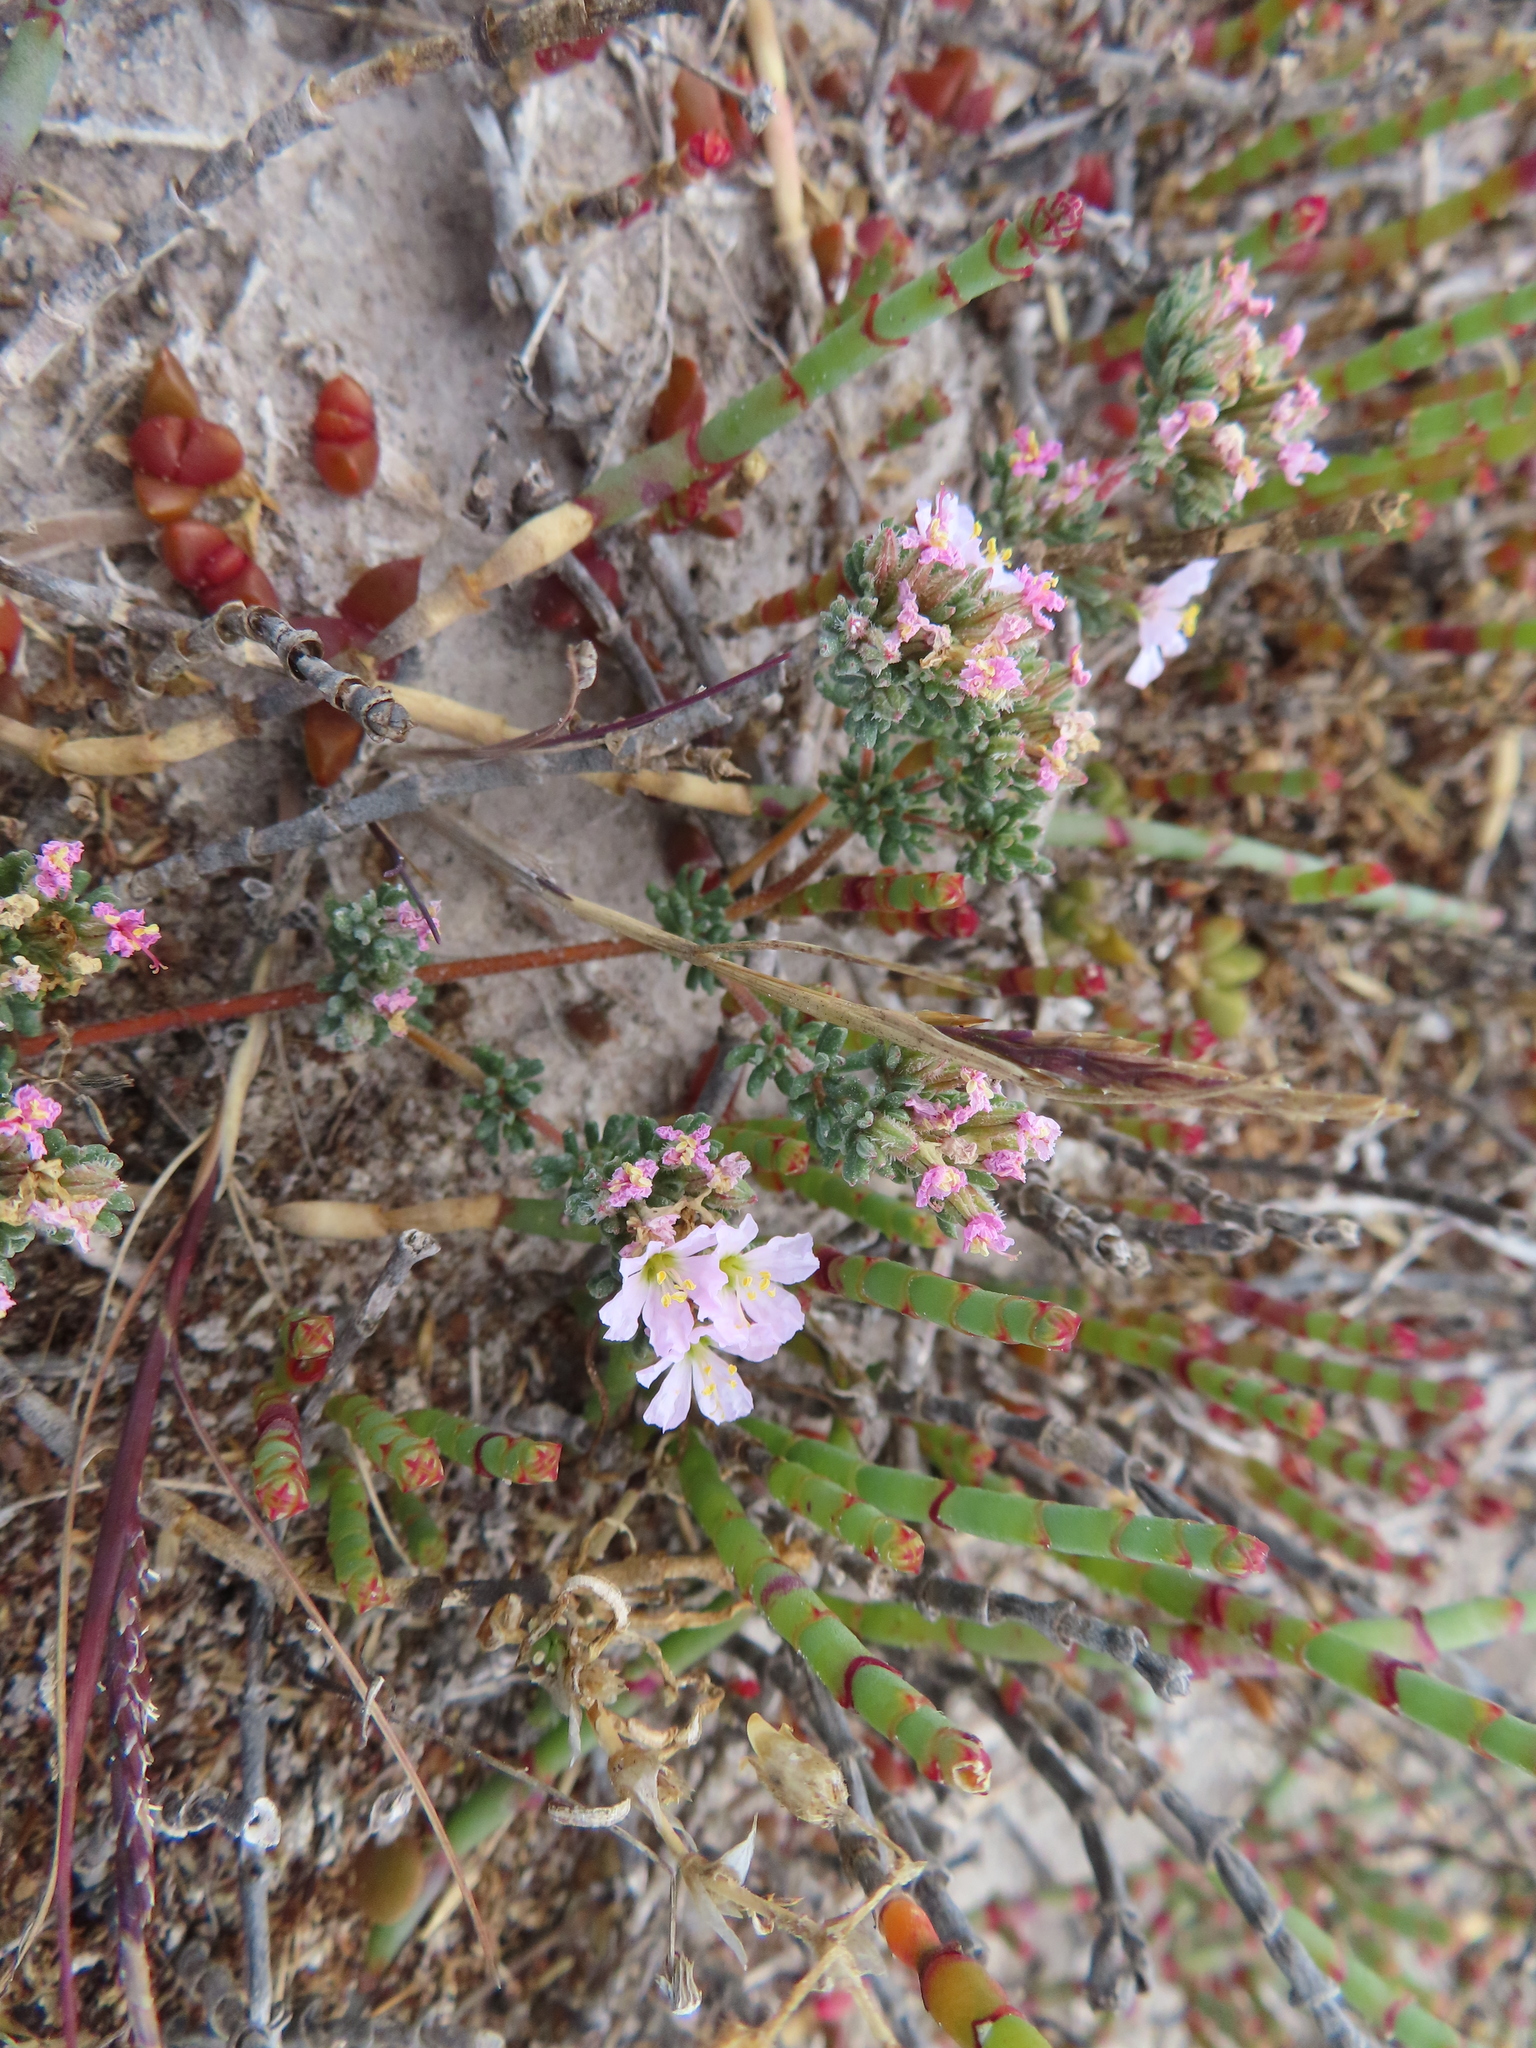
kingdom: Plantae
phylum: Tracheophyta
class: Magnoliopsida
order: Caryophyllales
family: Frankeniaceae
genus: Frankenia
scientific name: Frankenia pulverulenta
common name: European seaheath
